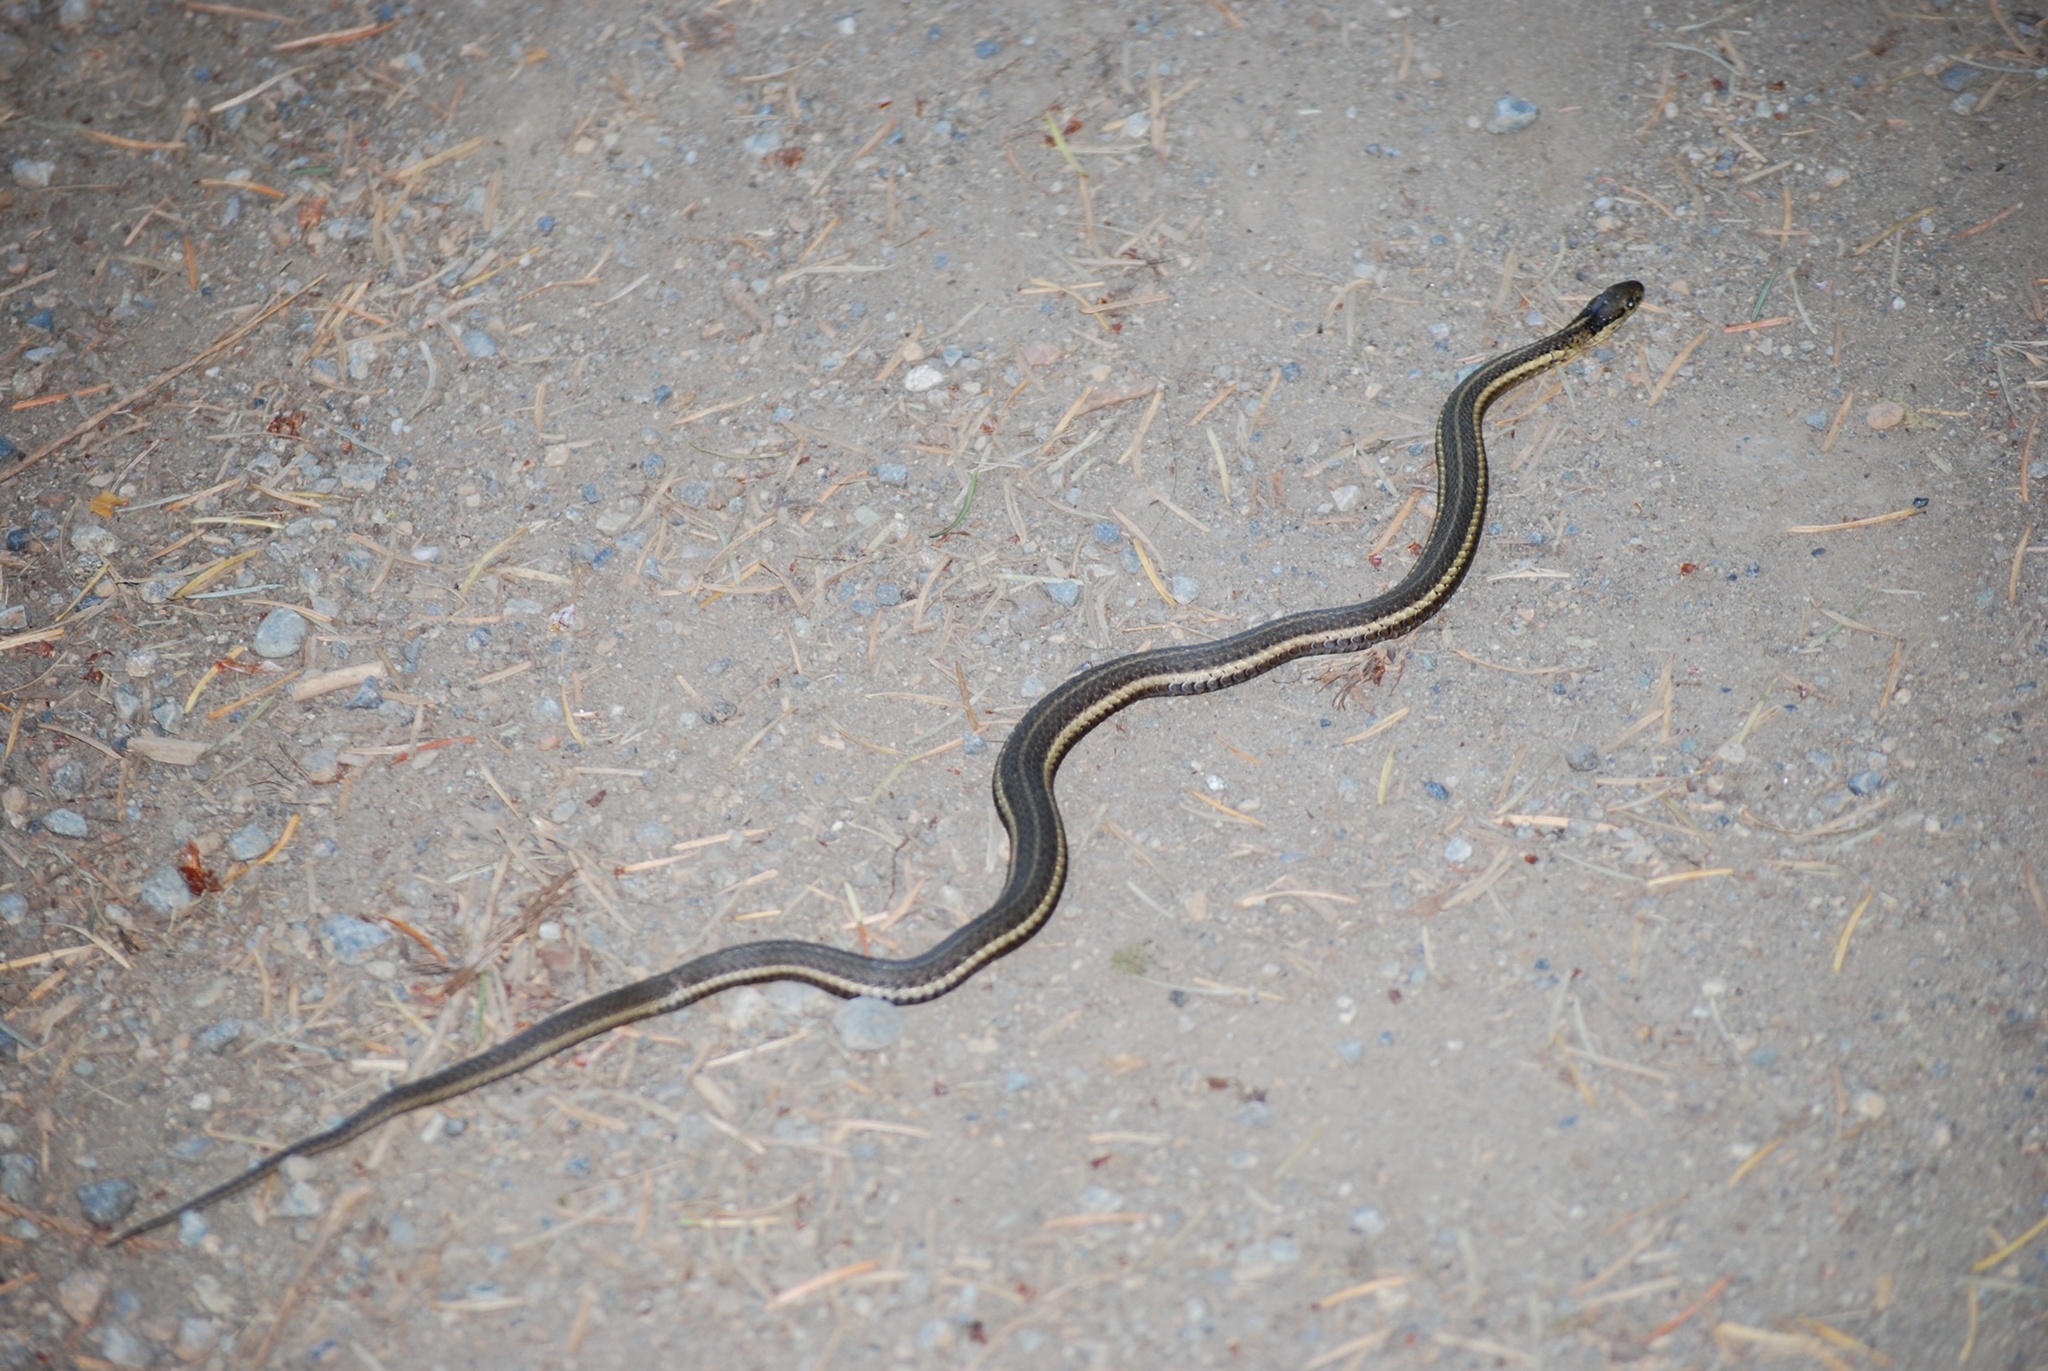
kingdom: Animalia
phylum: Chordata
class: Squamata
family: Colubridae
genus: Thamnophis
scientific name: Thamnophis ordinoides
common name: Northwestern garter snake
